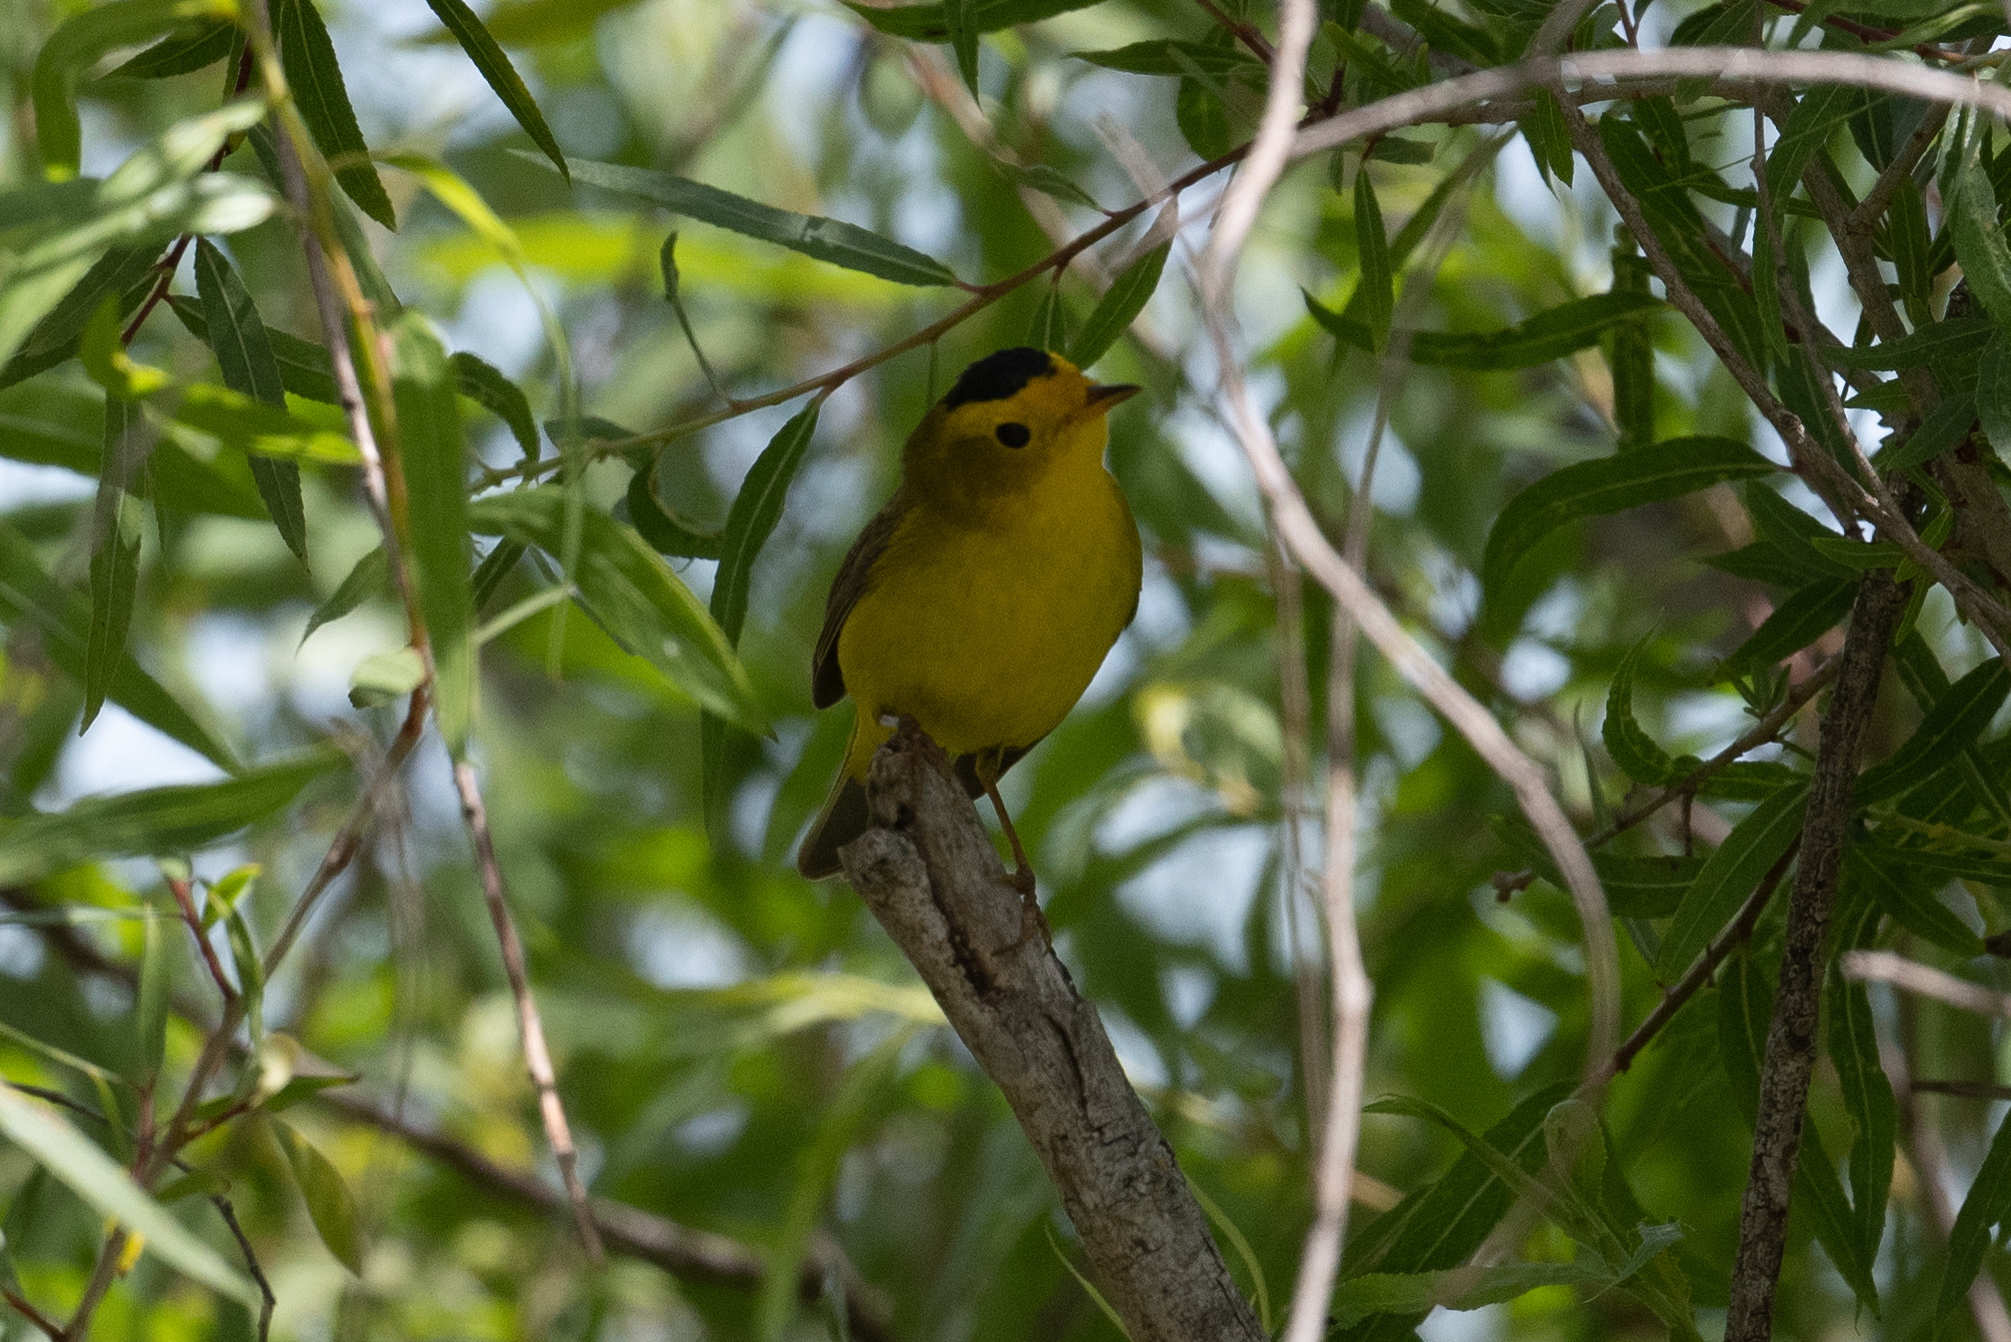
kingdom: Animalia
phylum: Chordata
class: Aves
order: Passeriformes
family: Parulidae
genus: Cardellina
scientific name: Cardellina pusilla
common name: Wilson's warbler
